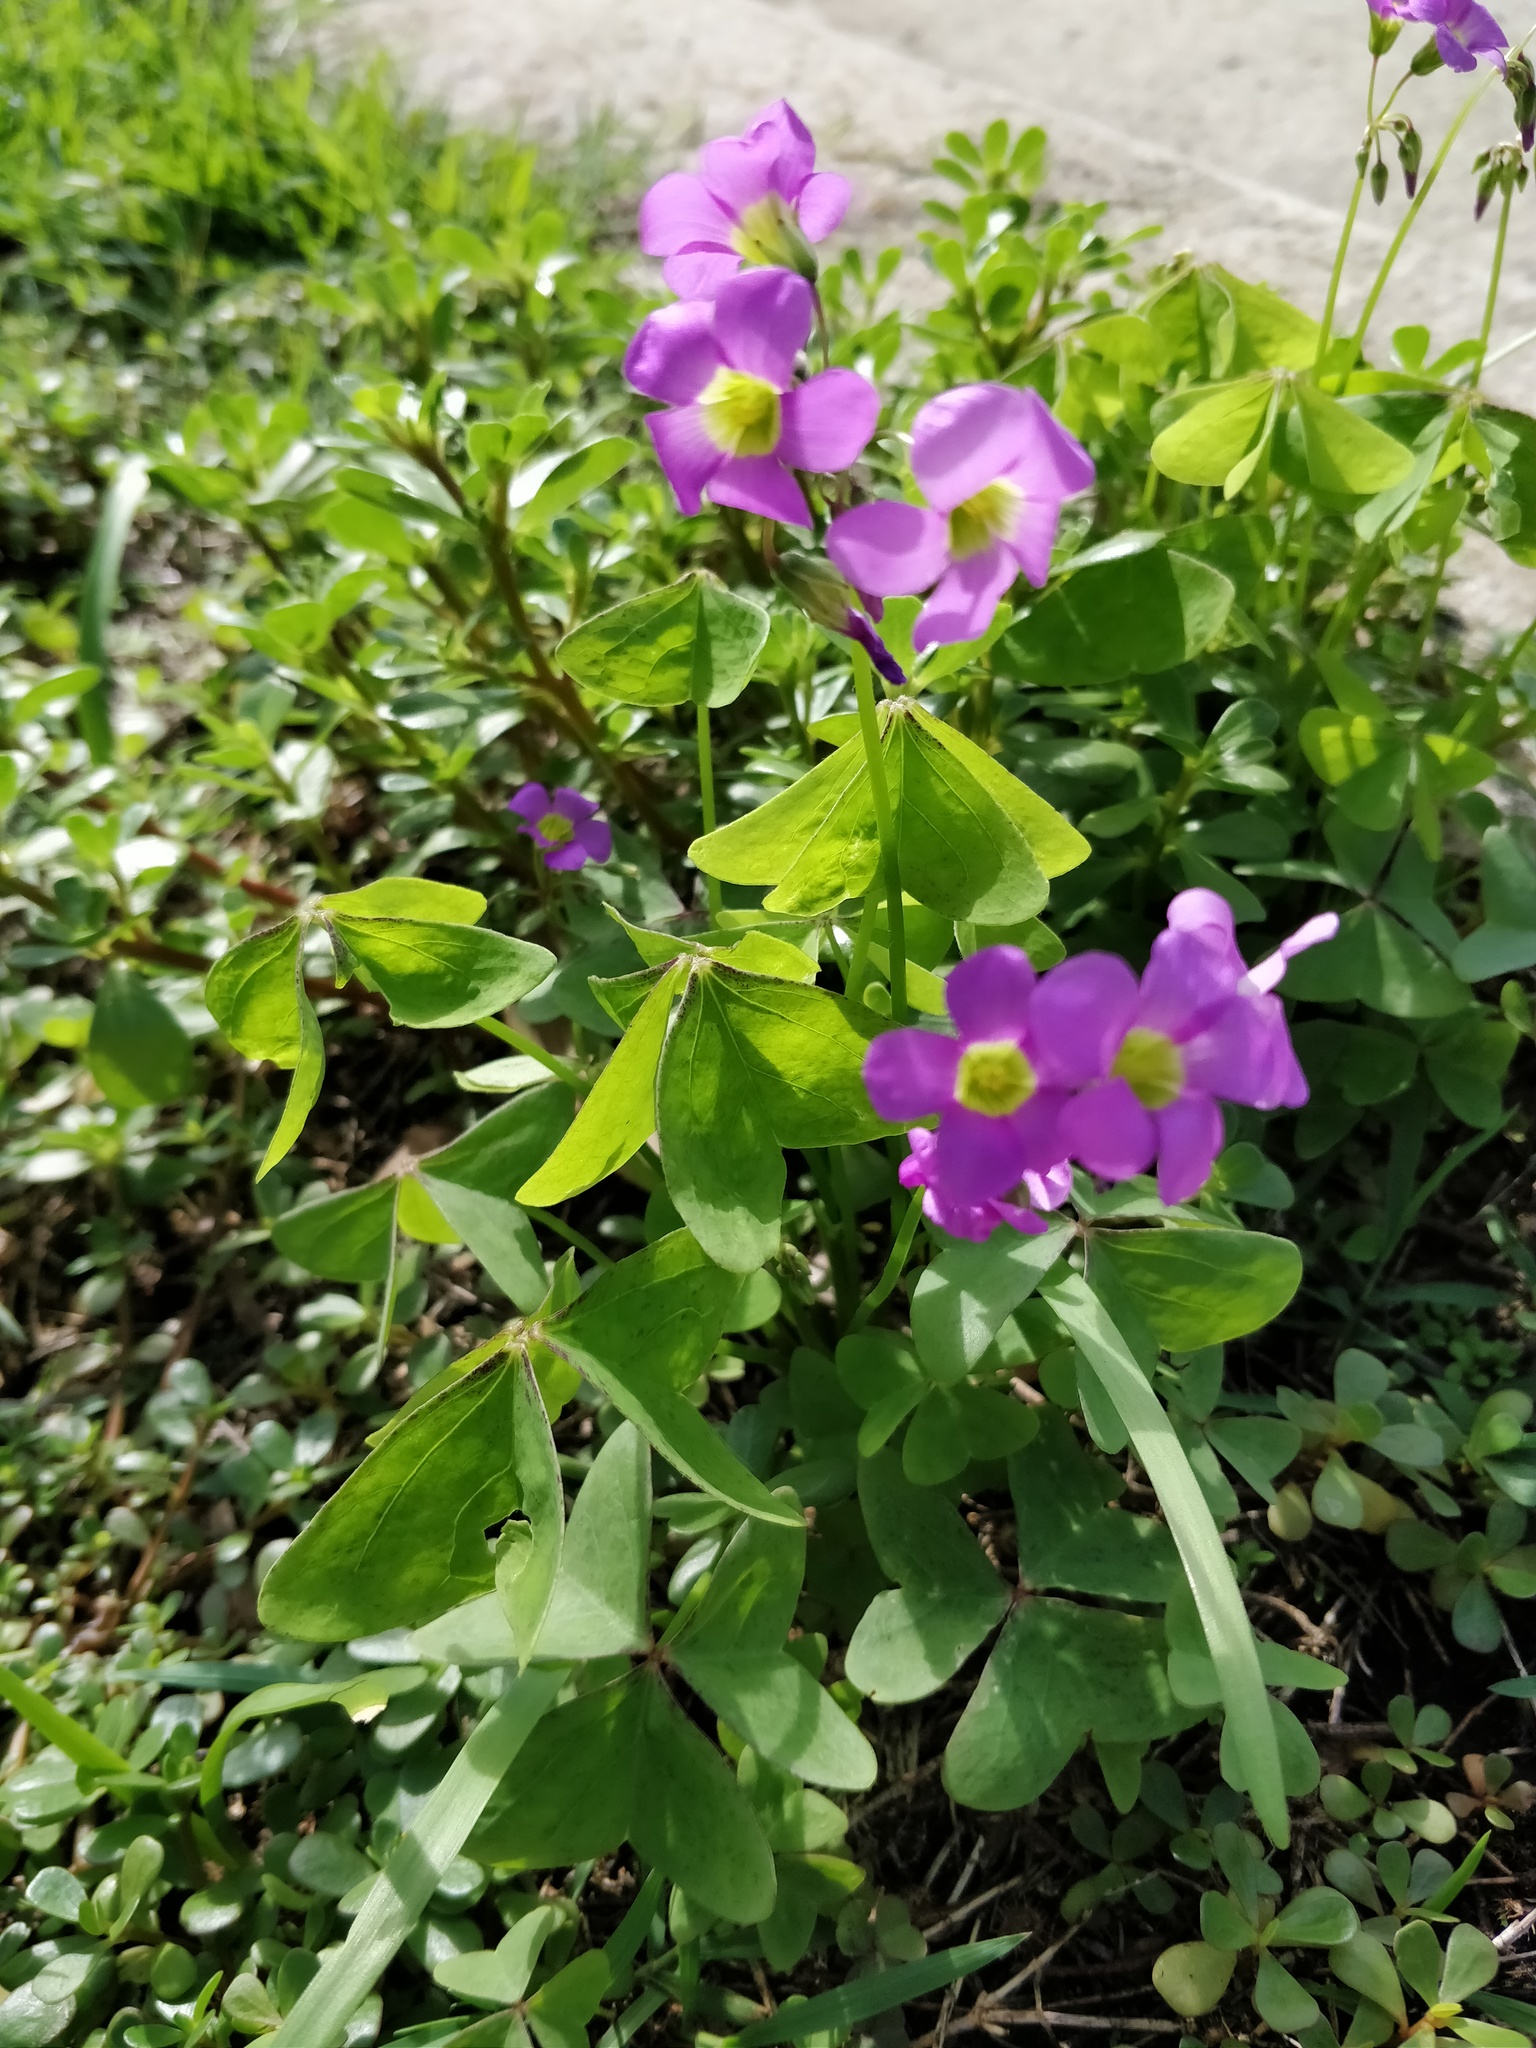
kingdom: Plantae
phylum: Tracheophyta
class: Magnoliopsida
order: Oxalidales
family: Oxalidaceae
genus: Oxalis
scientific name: Oxalis latifolia
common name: Garden pink-sorrel
